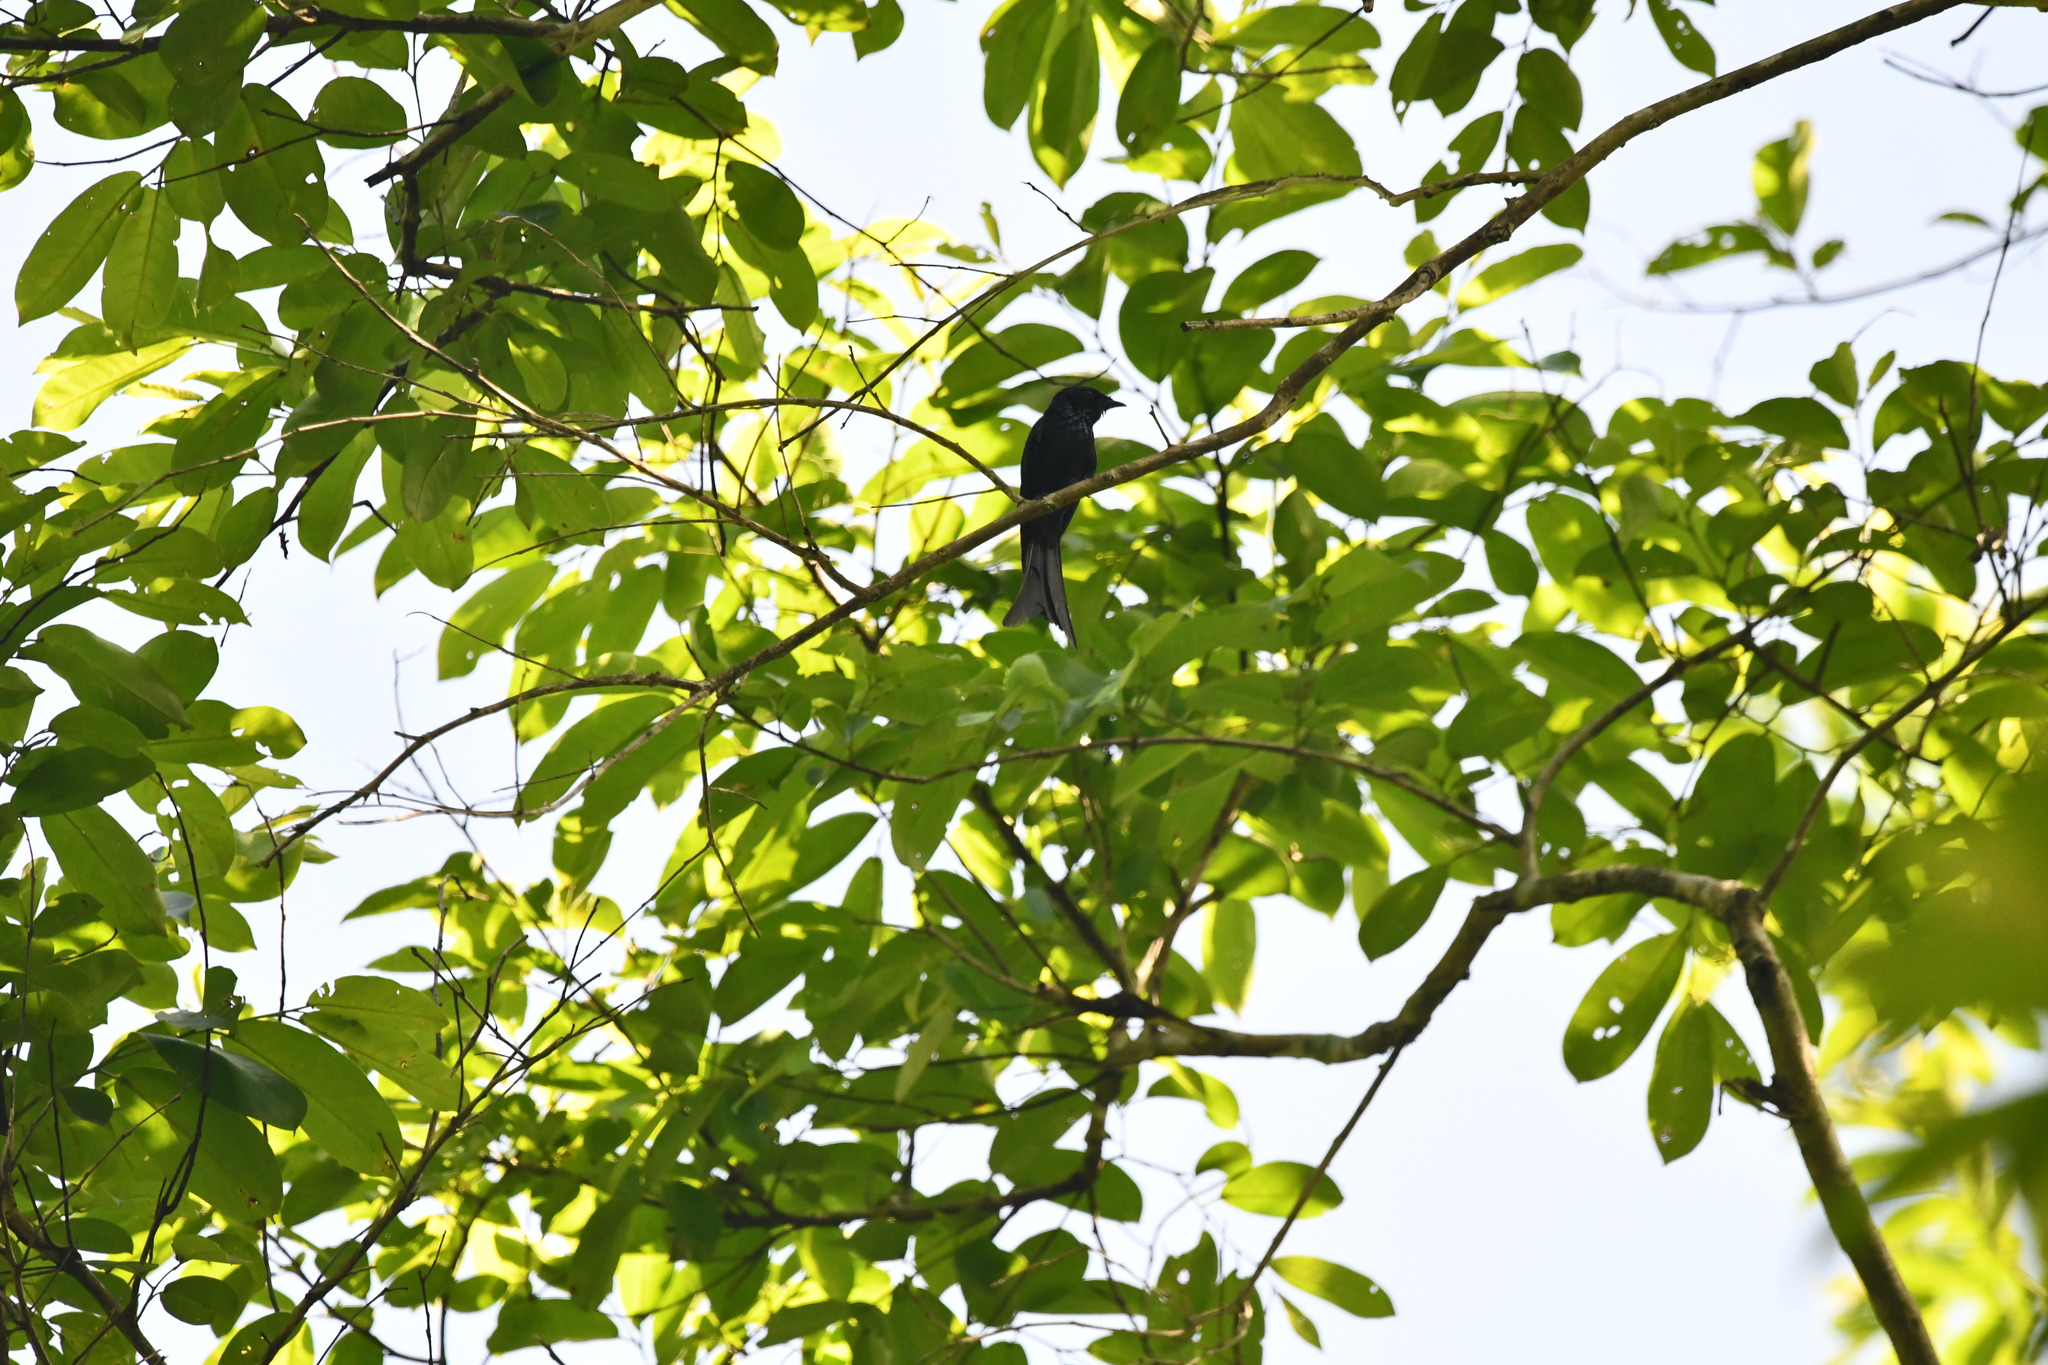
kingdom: Animalia
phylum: Chordata
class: Aves
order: Passeriformes
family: Dicruridae
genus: Dicrurus
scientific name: Dicrurus aeneus
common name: Bronzed drongo
